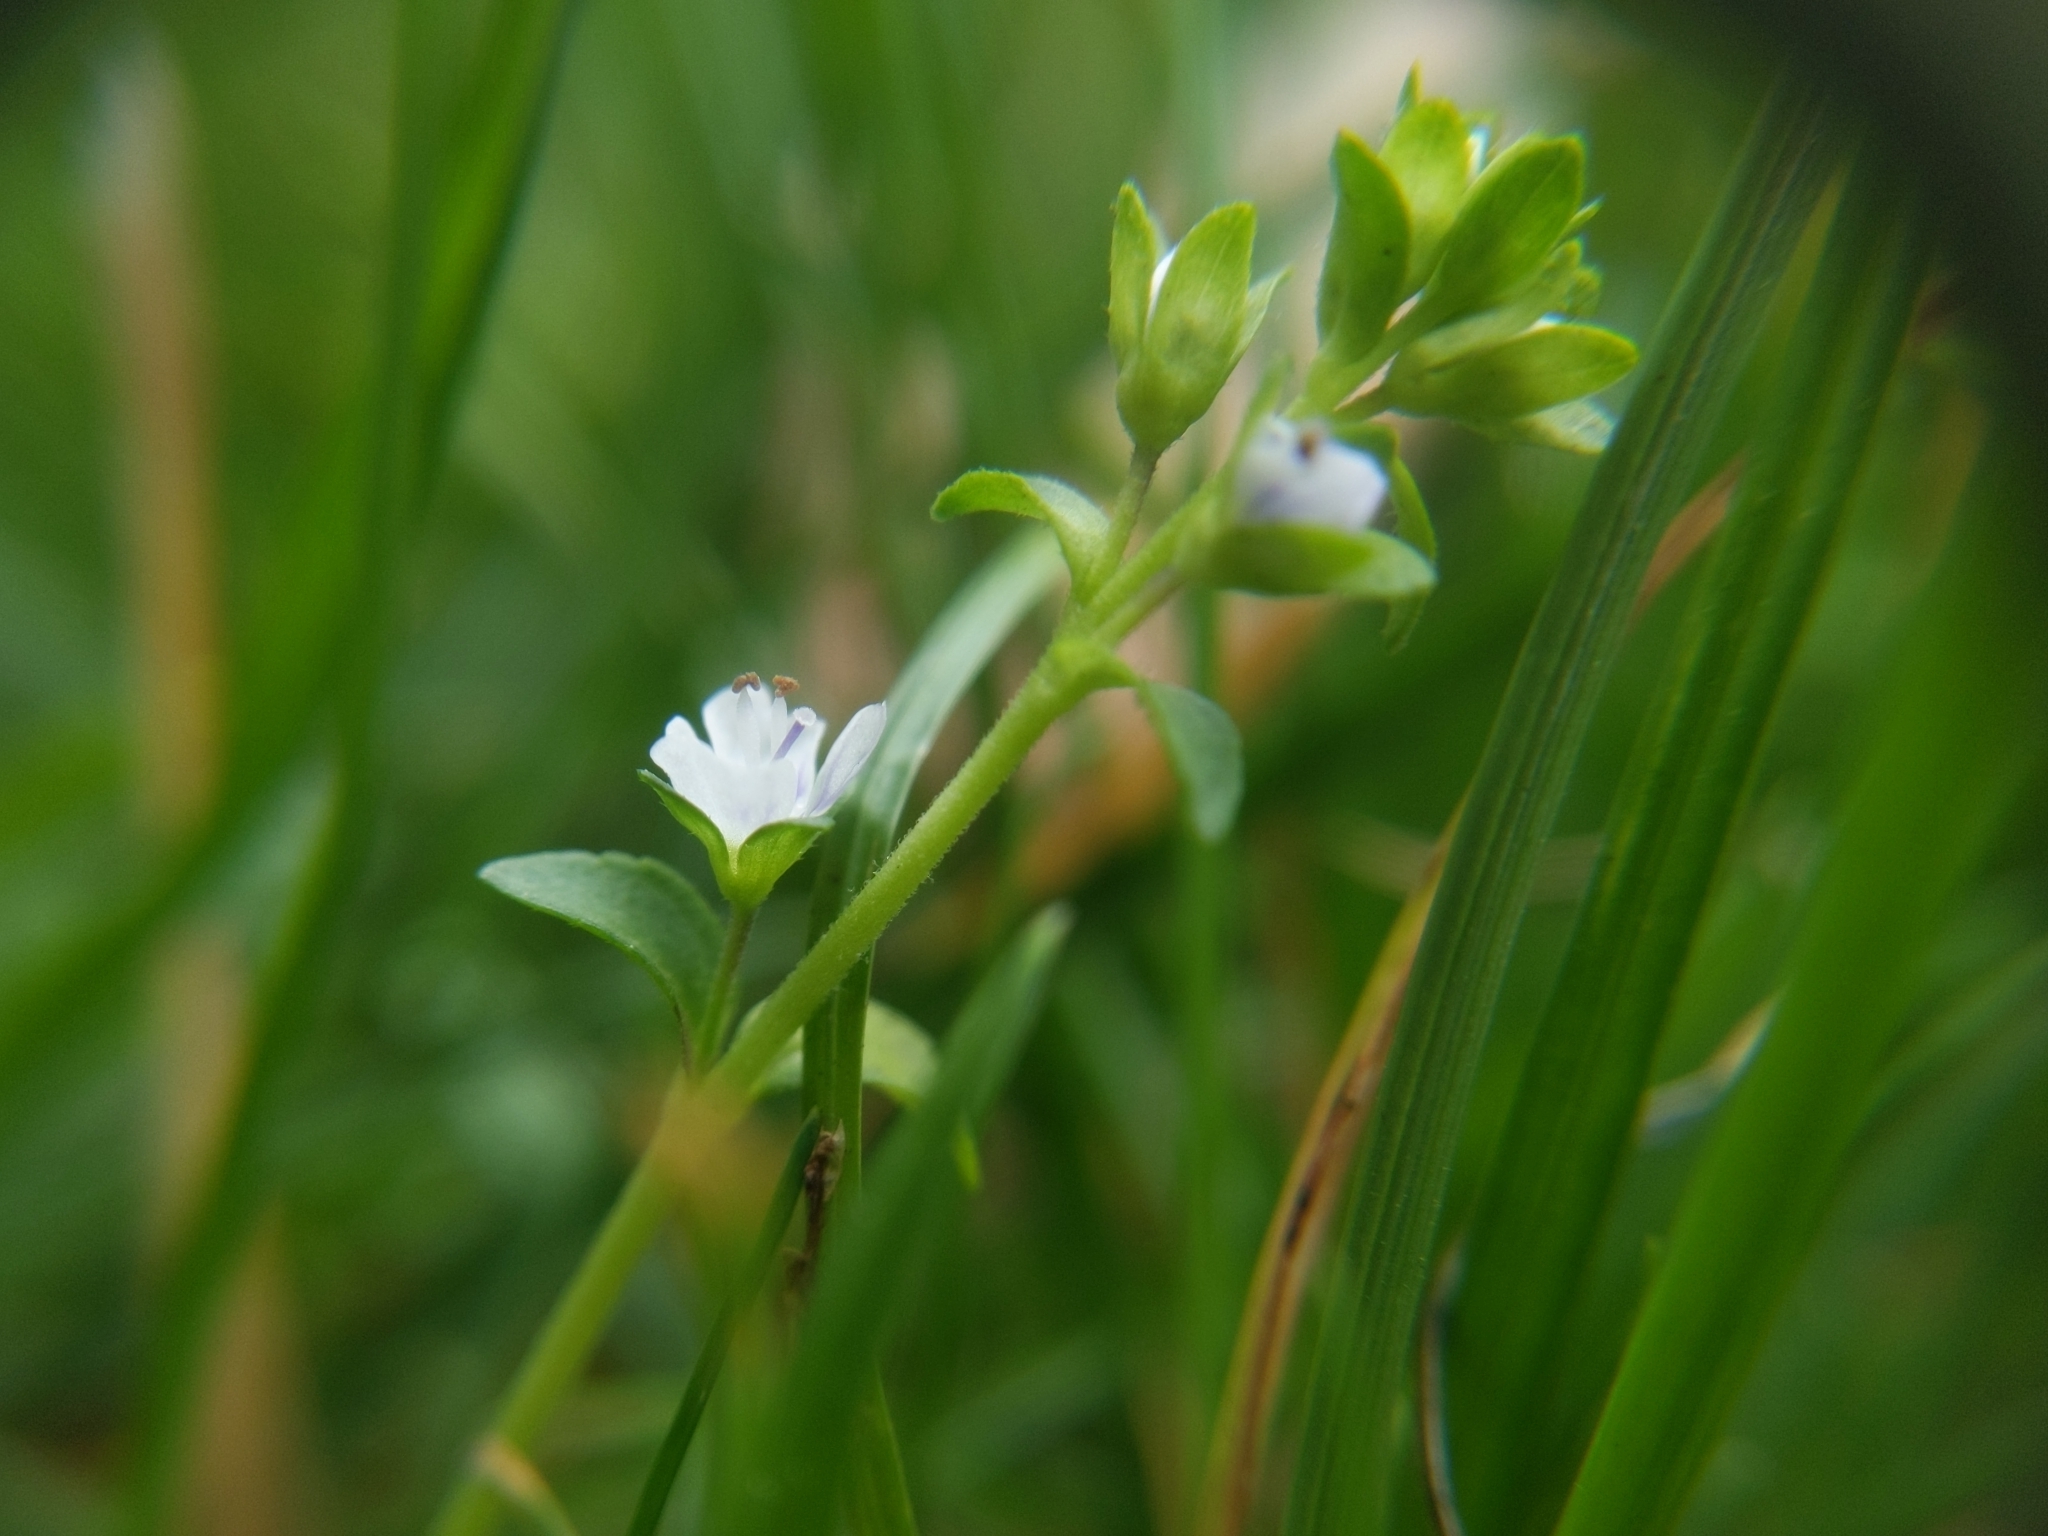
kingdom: Plantae
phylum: Tracheophyta
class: Magnoliopsida
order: Lamiales
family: Plantaginaceae
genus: Veronica
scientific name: Veronica serpyllifolia
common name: Thyme-leaved speedwell
